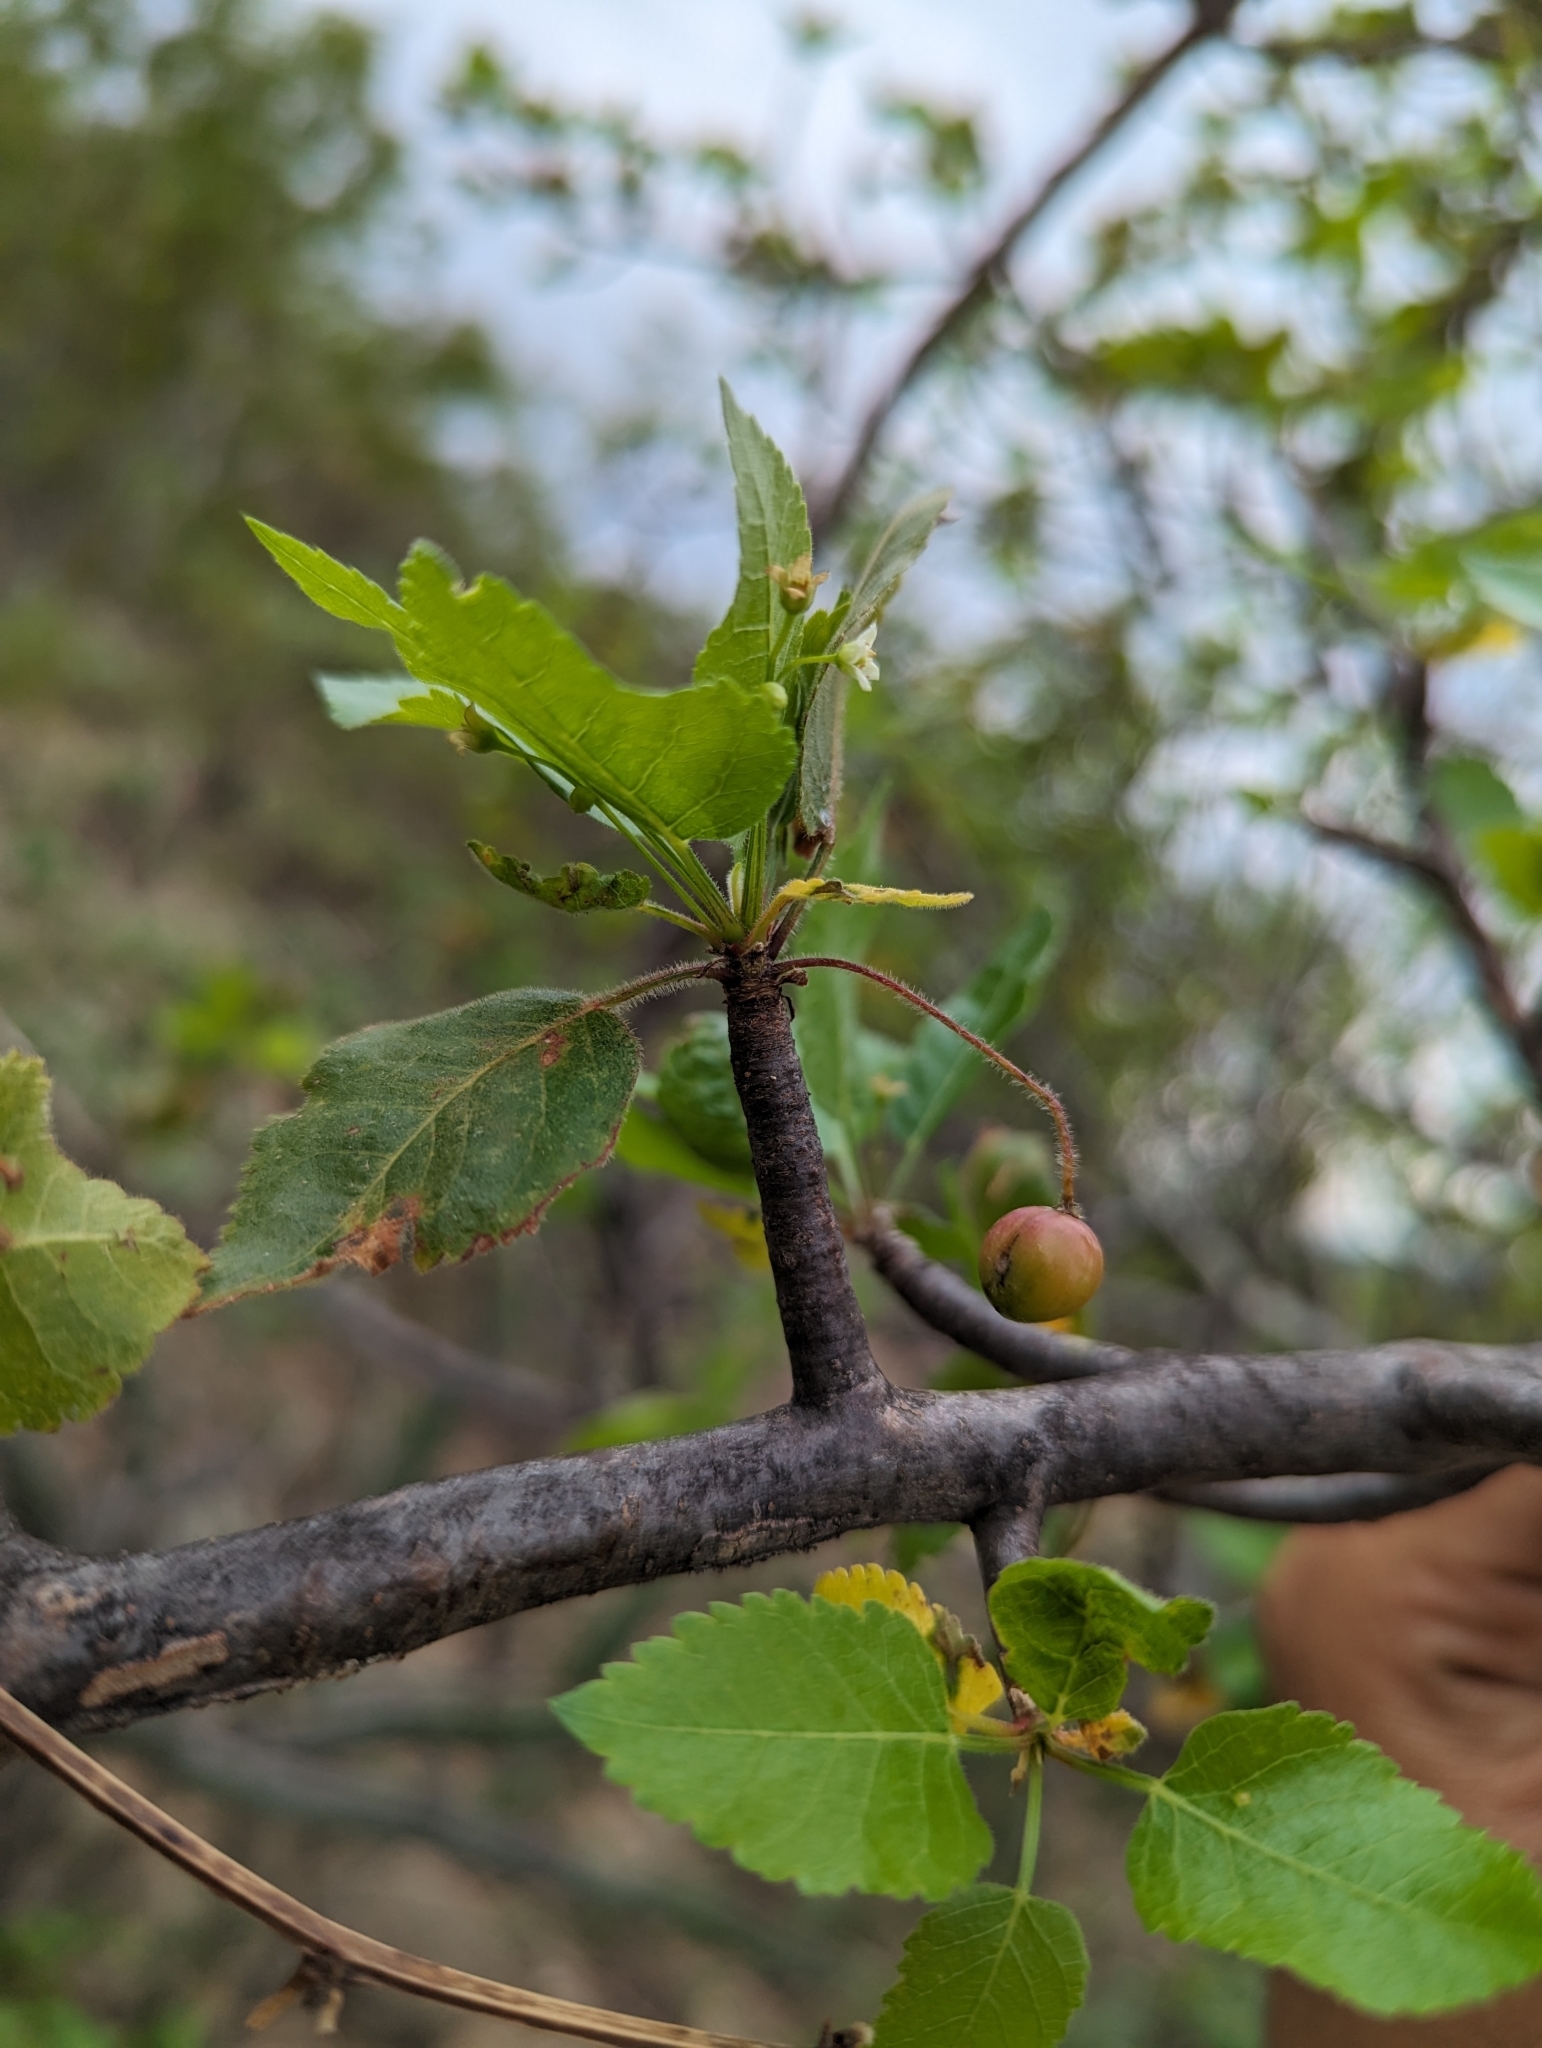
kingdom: Plantae
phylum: Tracheophyta
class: Magnoliopsida
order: Sapindales
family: Burseraceae
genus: Bursera
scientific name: Bursera epinnata
